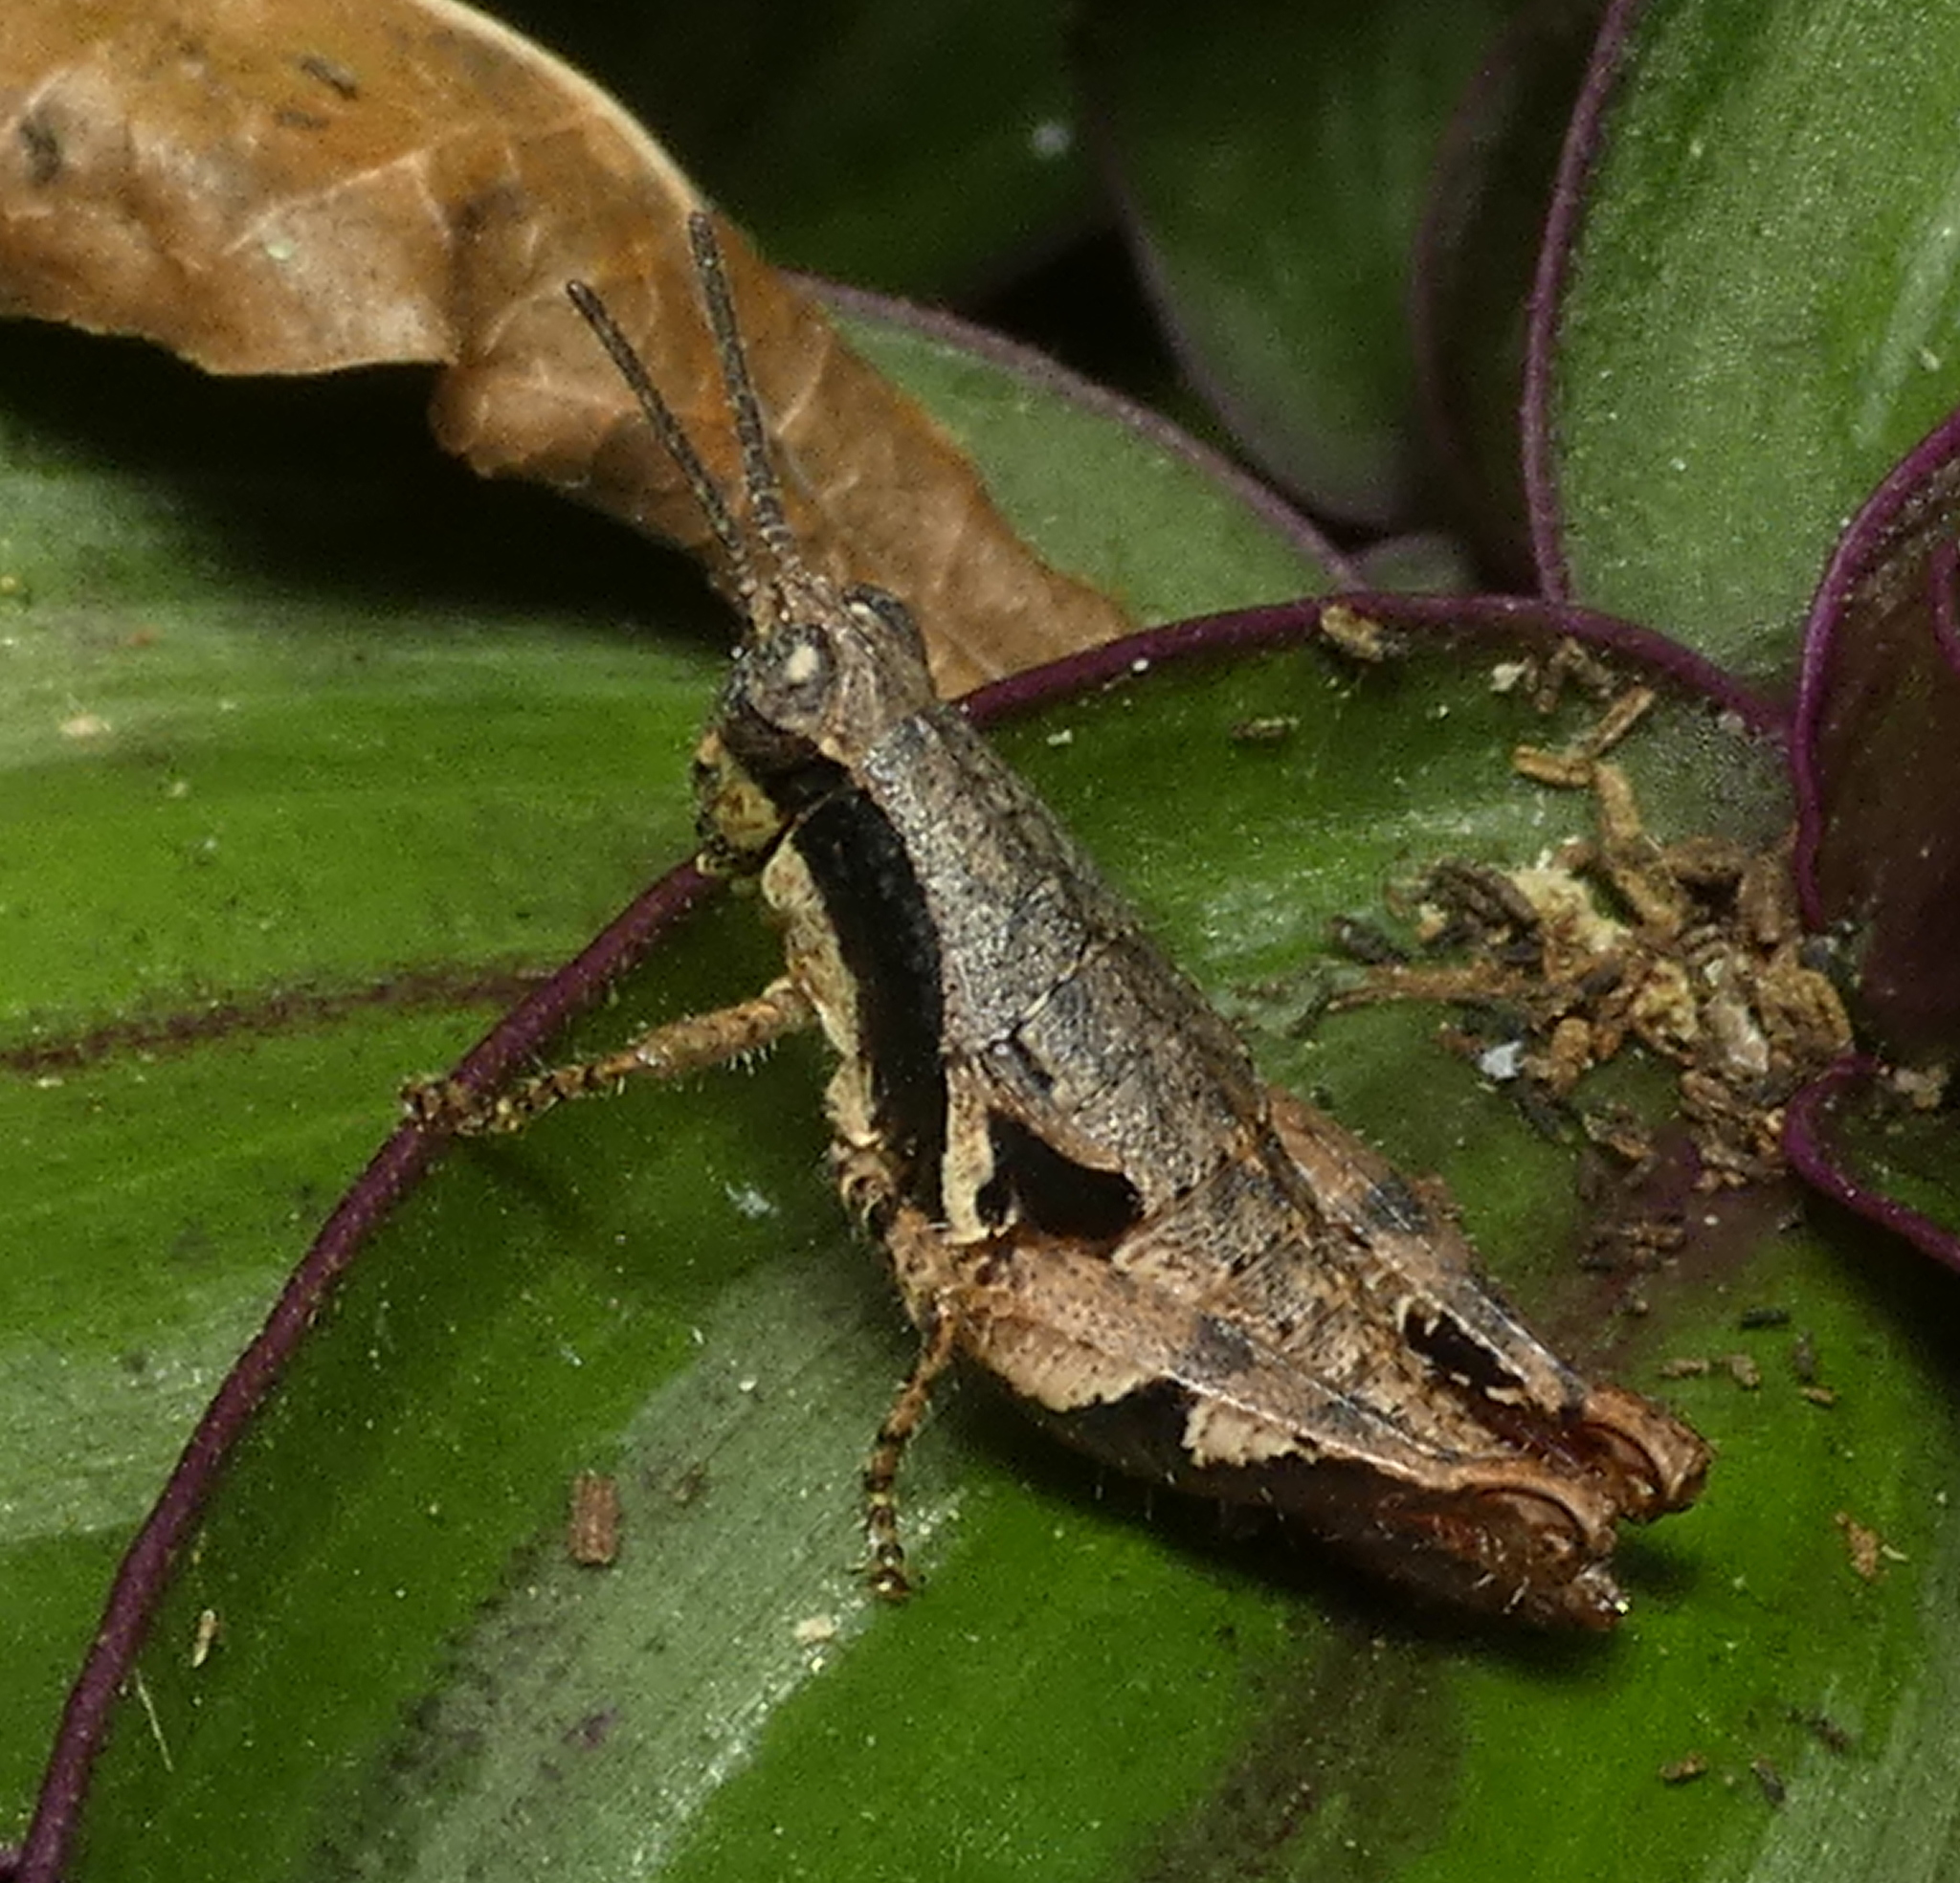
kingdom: Animalia
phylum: Arthropoda
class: Insecta
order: Orthoptera
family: Acrididae
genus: Eujivarus
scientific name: Eujivarus meridionalis
